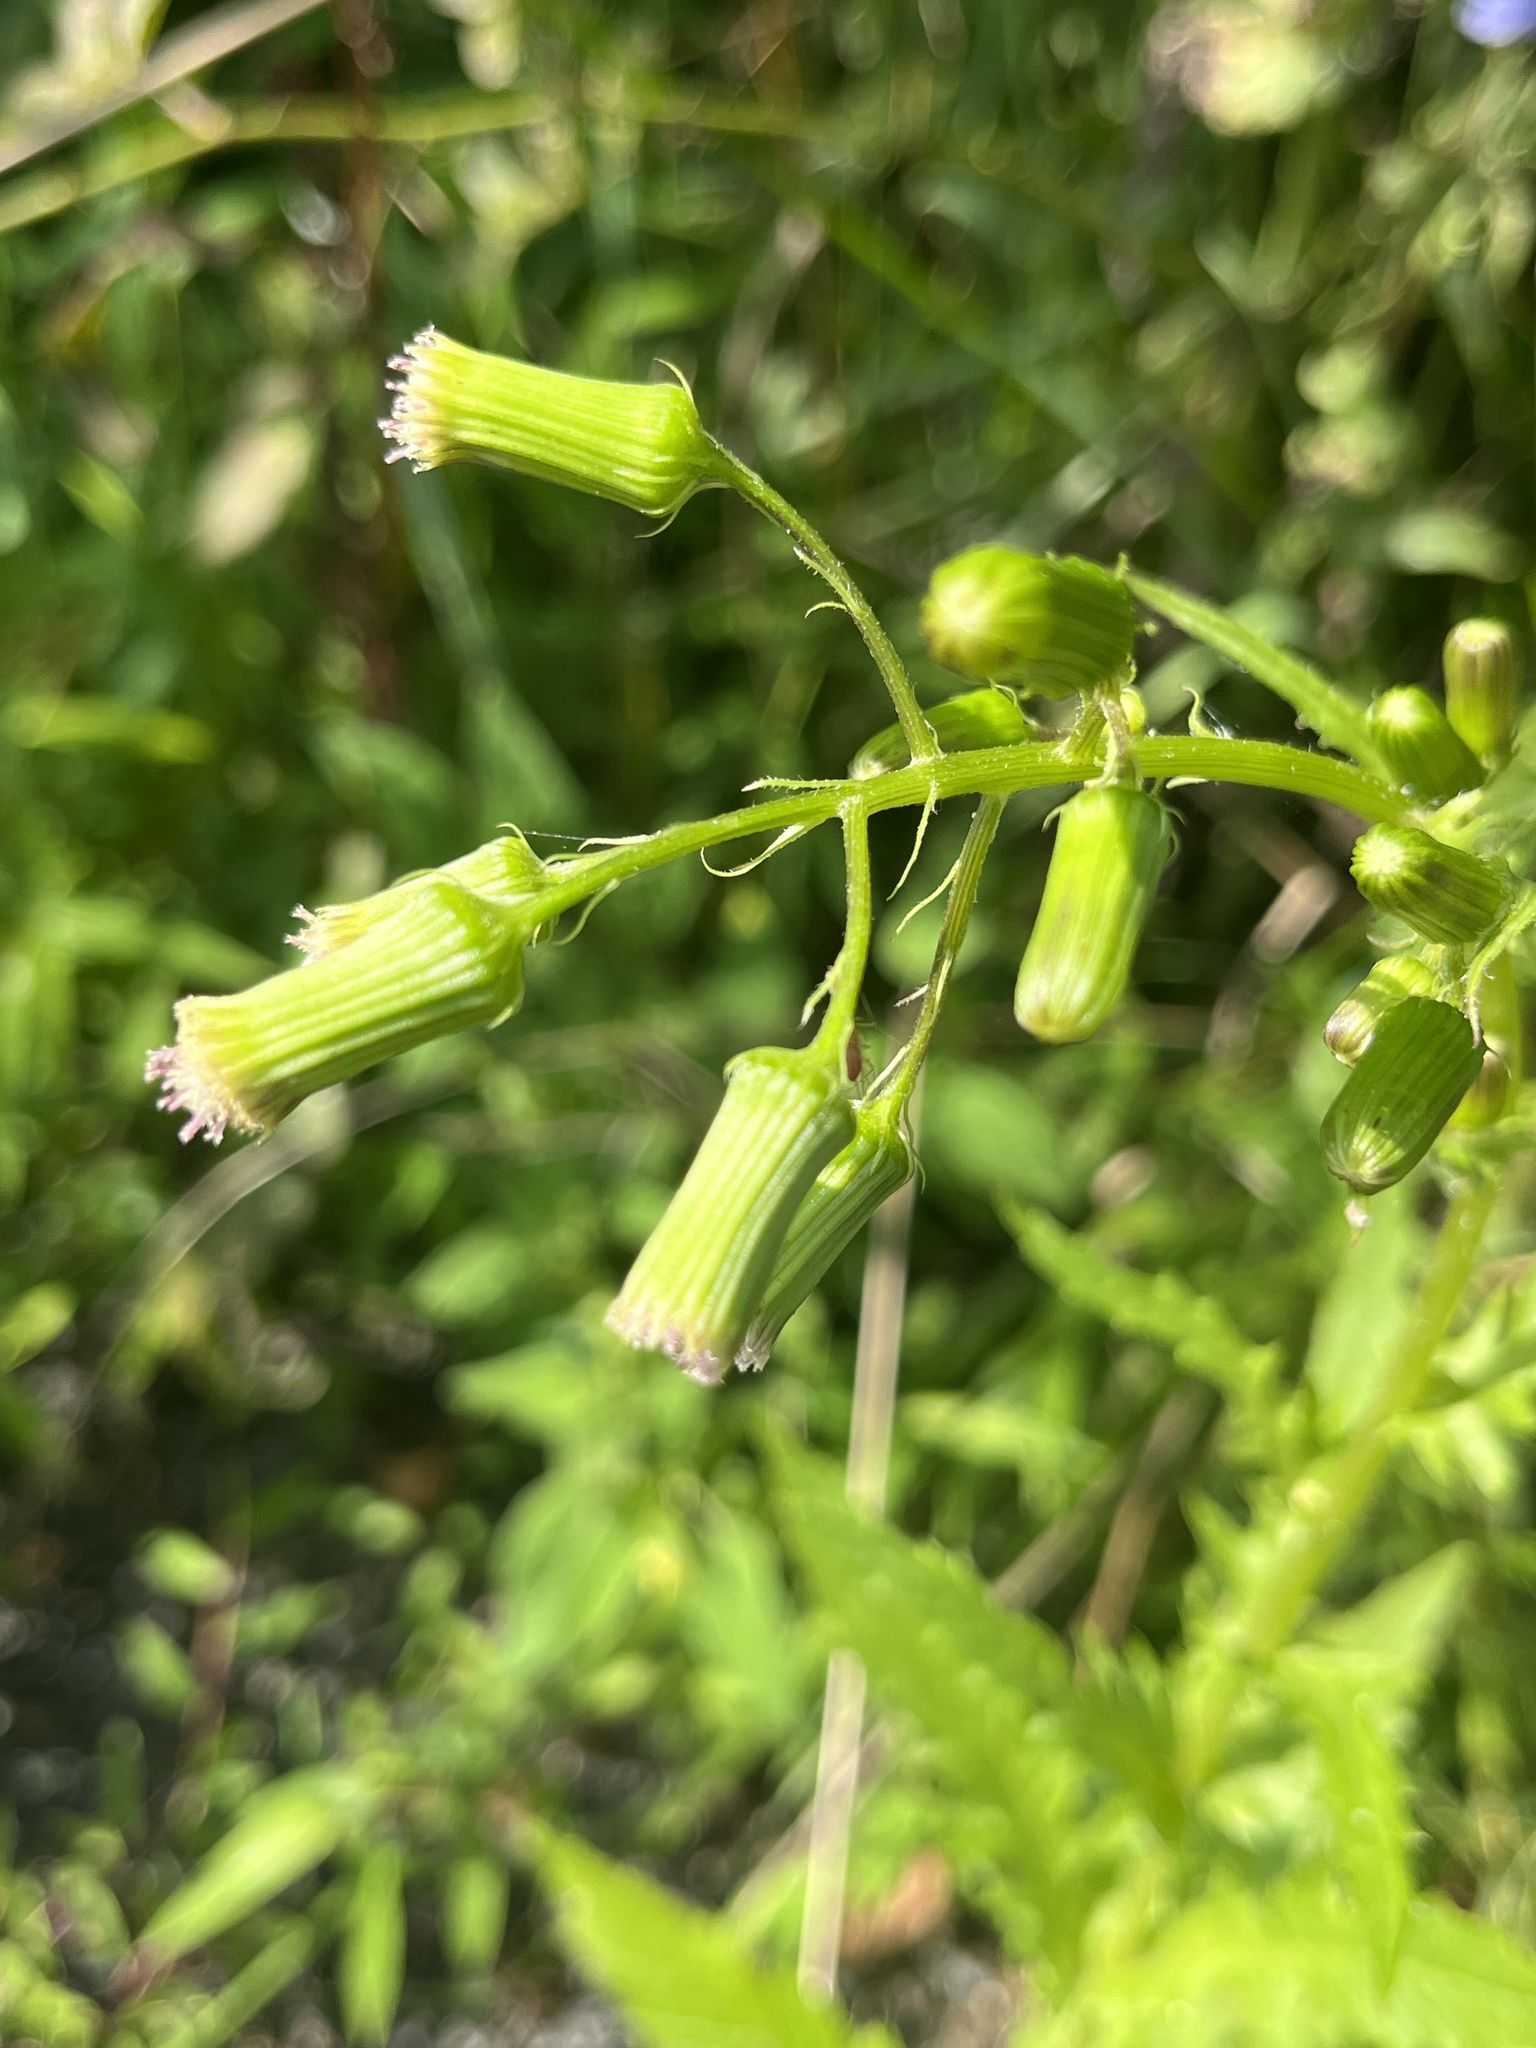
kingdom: Plantae
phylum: Tracheophyta
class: Magnoliopsida
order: Asterales
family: Asteraceae
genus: Erechtites
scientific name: Erechtites hieraciifolius
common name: American burnweed
